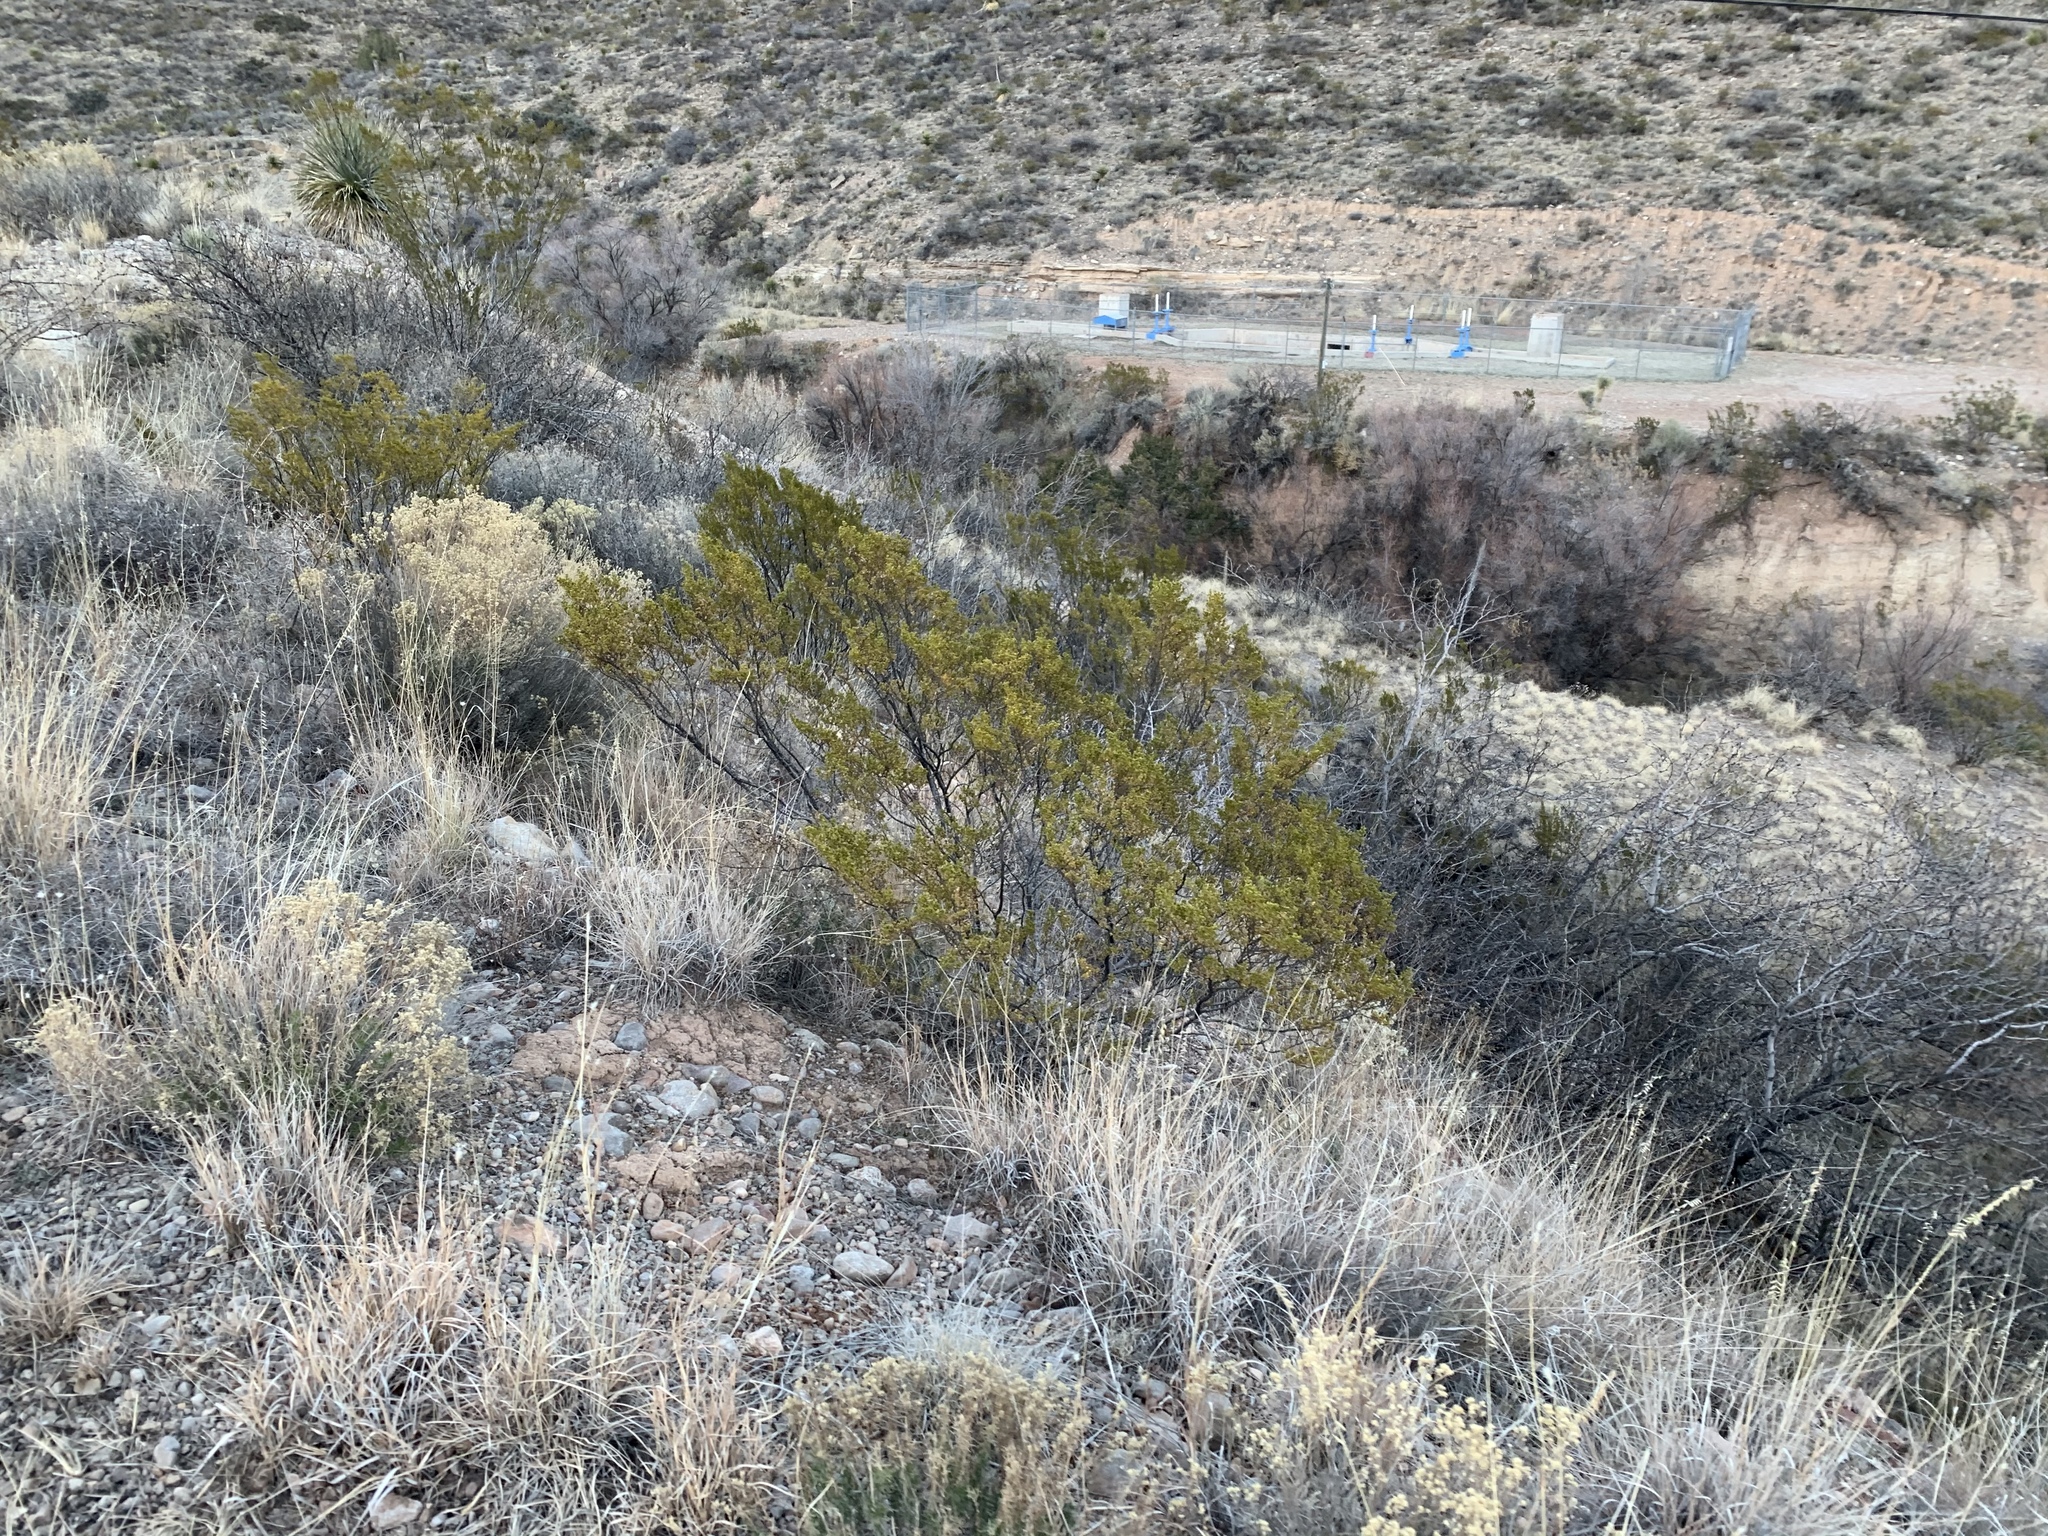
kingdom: Plantae
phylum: Tracheophyta
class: Magnoliopsida
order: Zygophyllales
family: Zygophyllaceae
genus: Larrea
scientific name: Larrea tridentata
